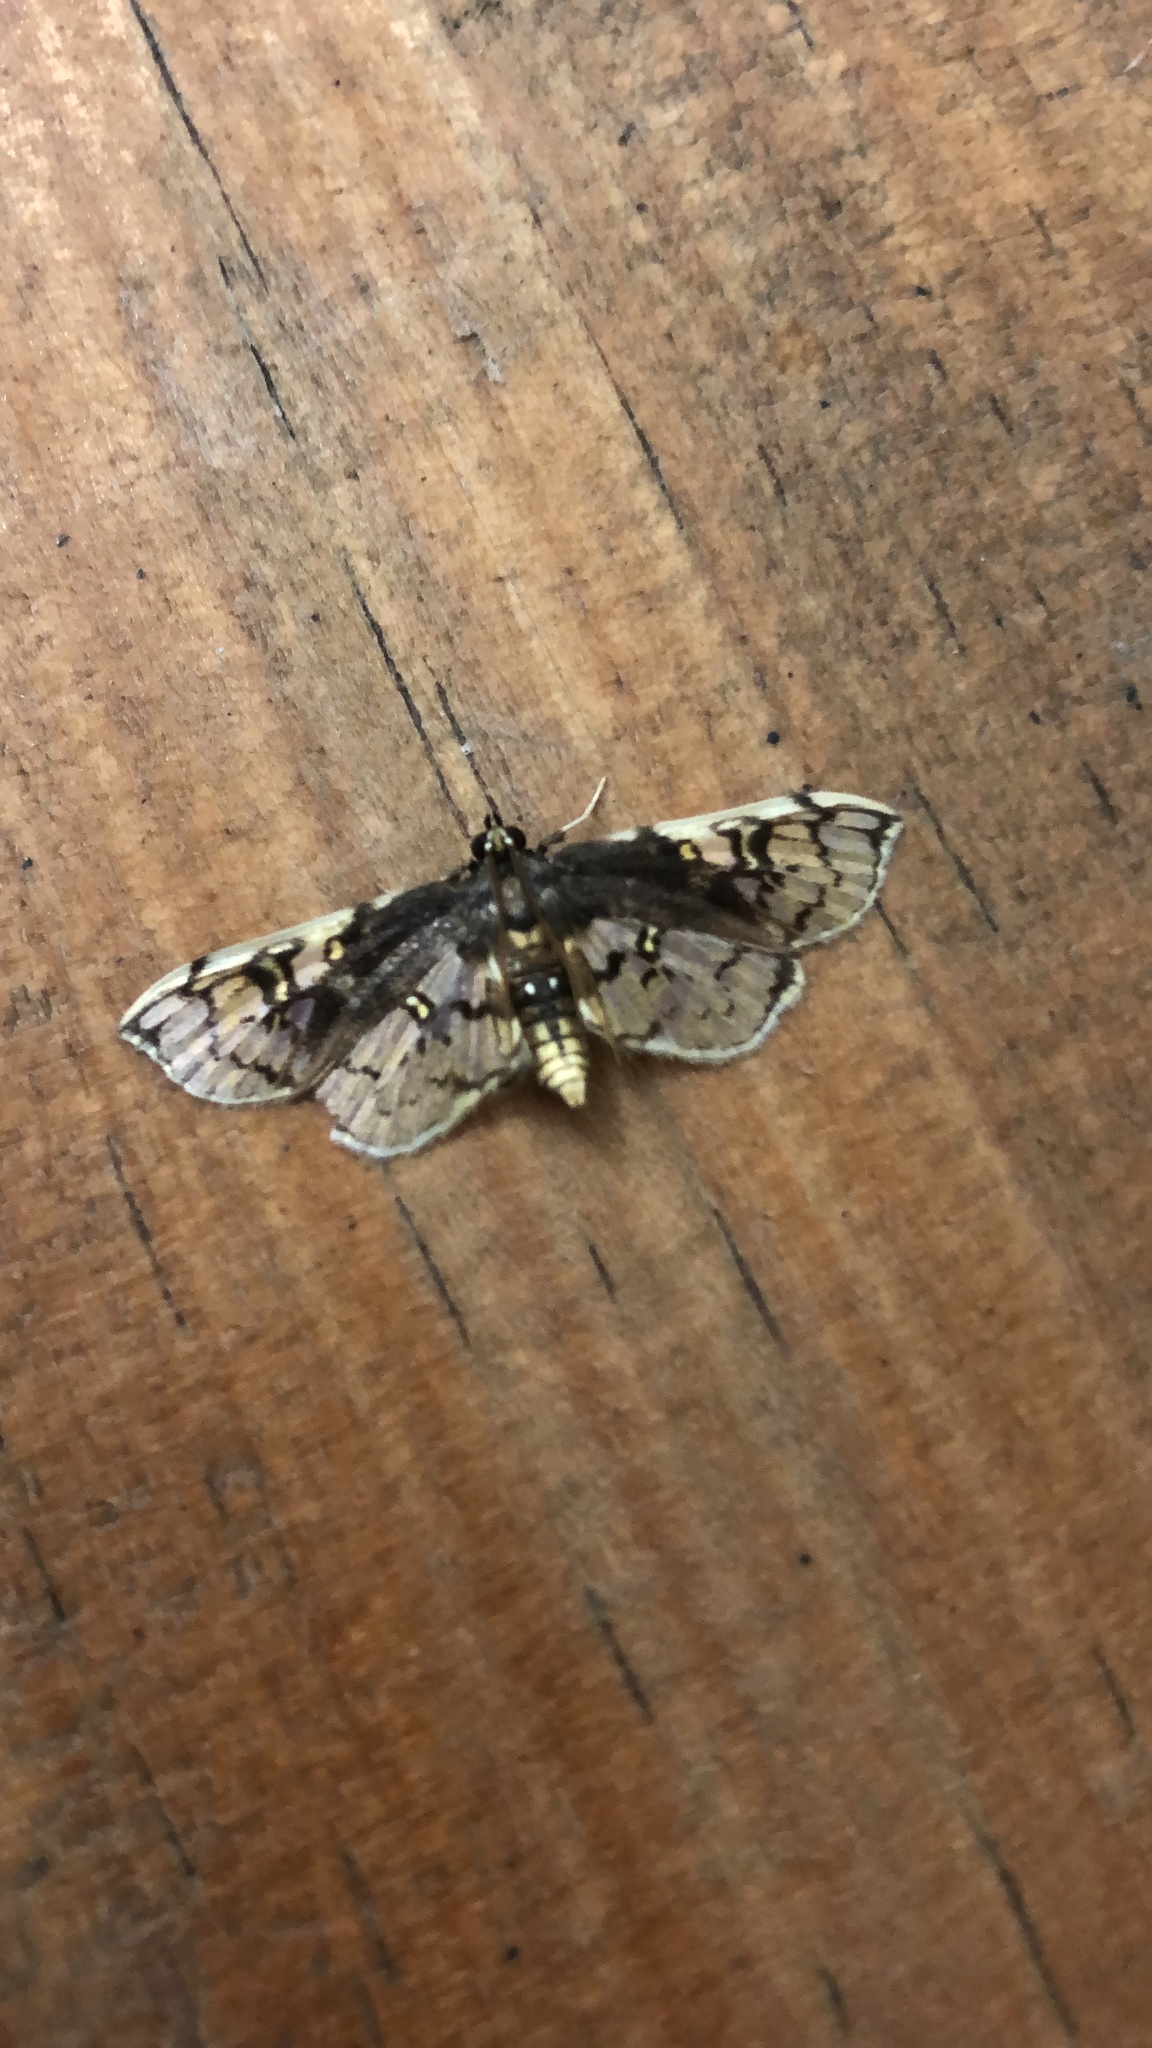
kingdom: Animalia
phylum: Arthropoda
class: Insecta
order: Lepidoptera
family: Crambidae
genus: Compacta
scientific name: Compacta capitalis
